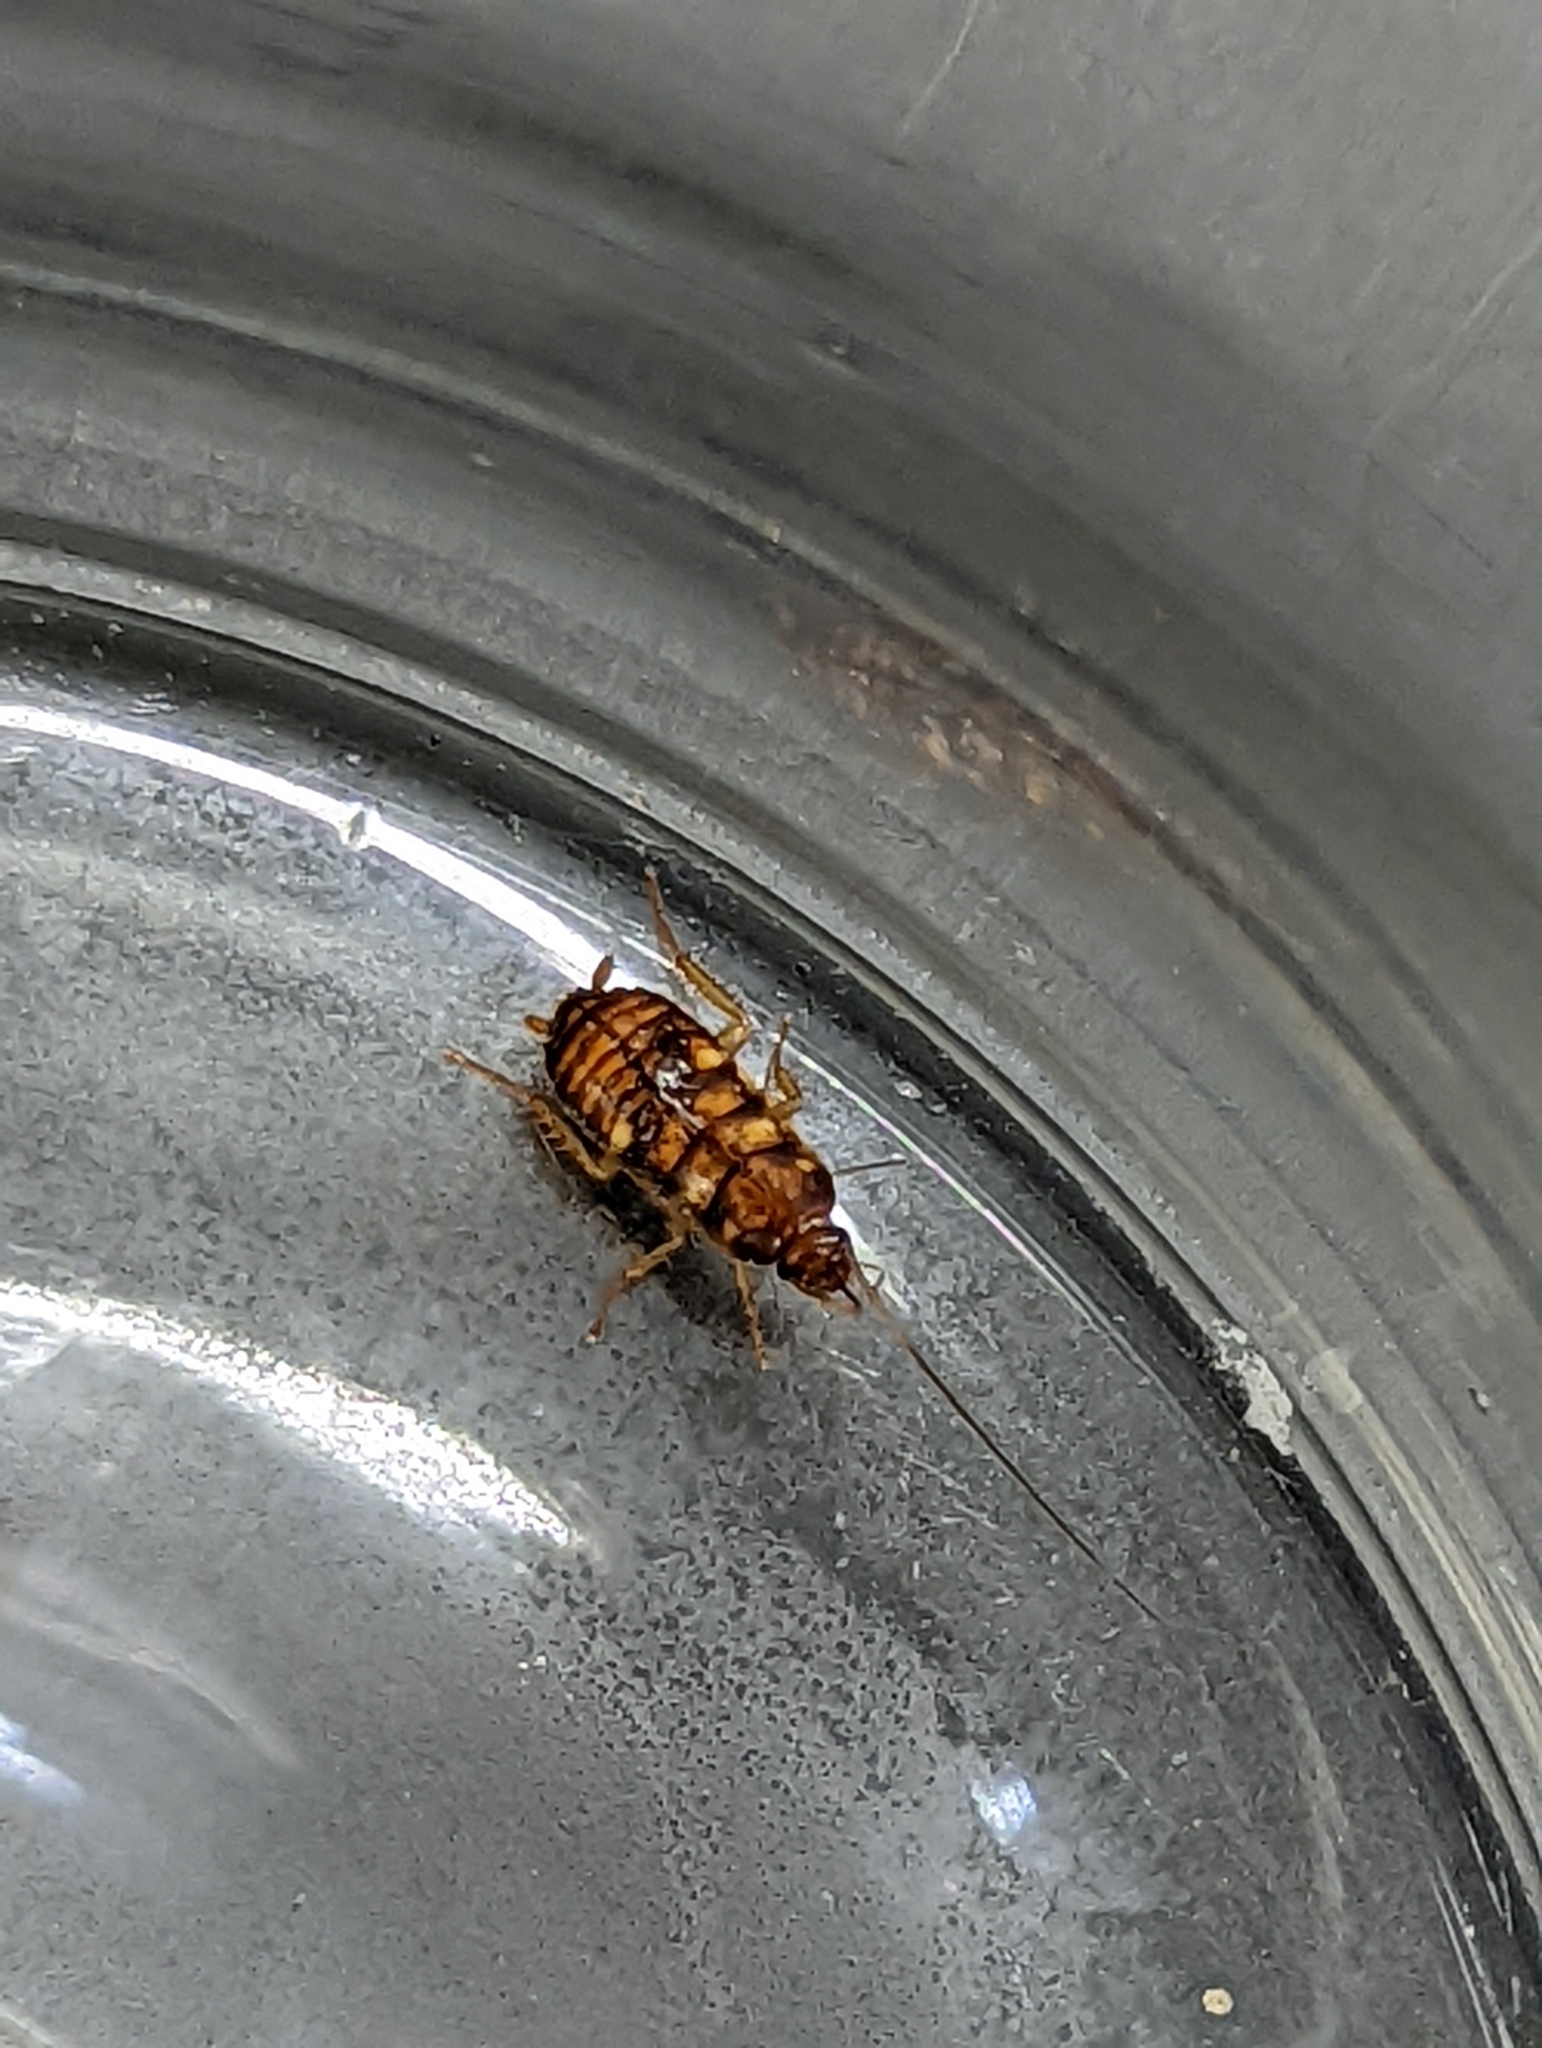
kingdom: Animalia
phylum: Arthropoda
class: Insecta
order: Blattodea
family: Blattidae
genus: Periplaneta
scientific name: Periplaneta australasiae
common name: Australian cockroach
